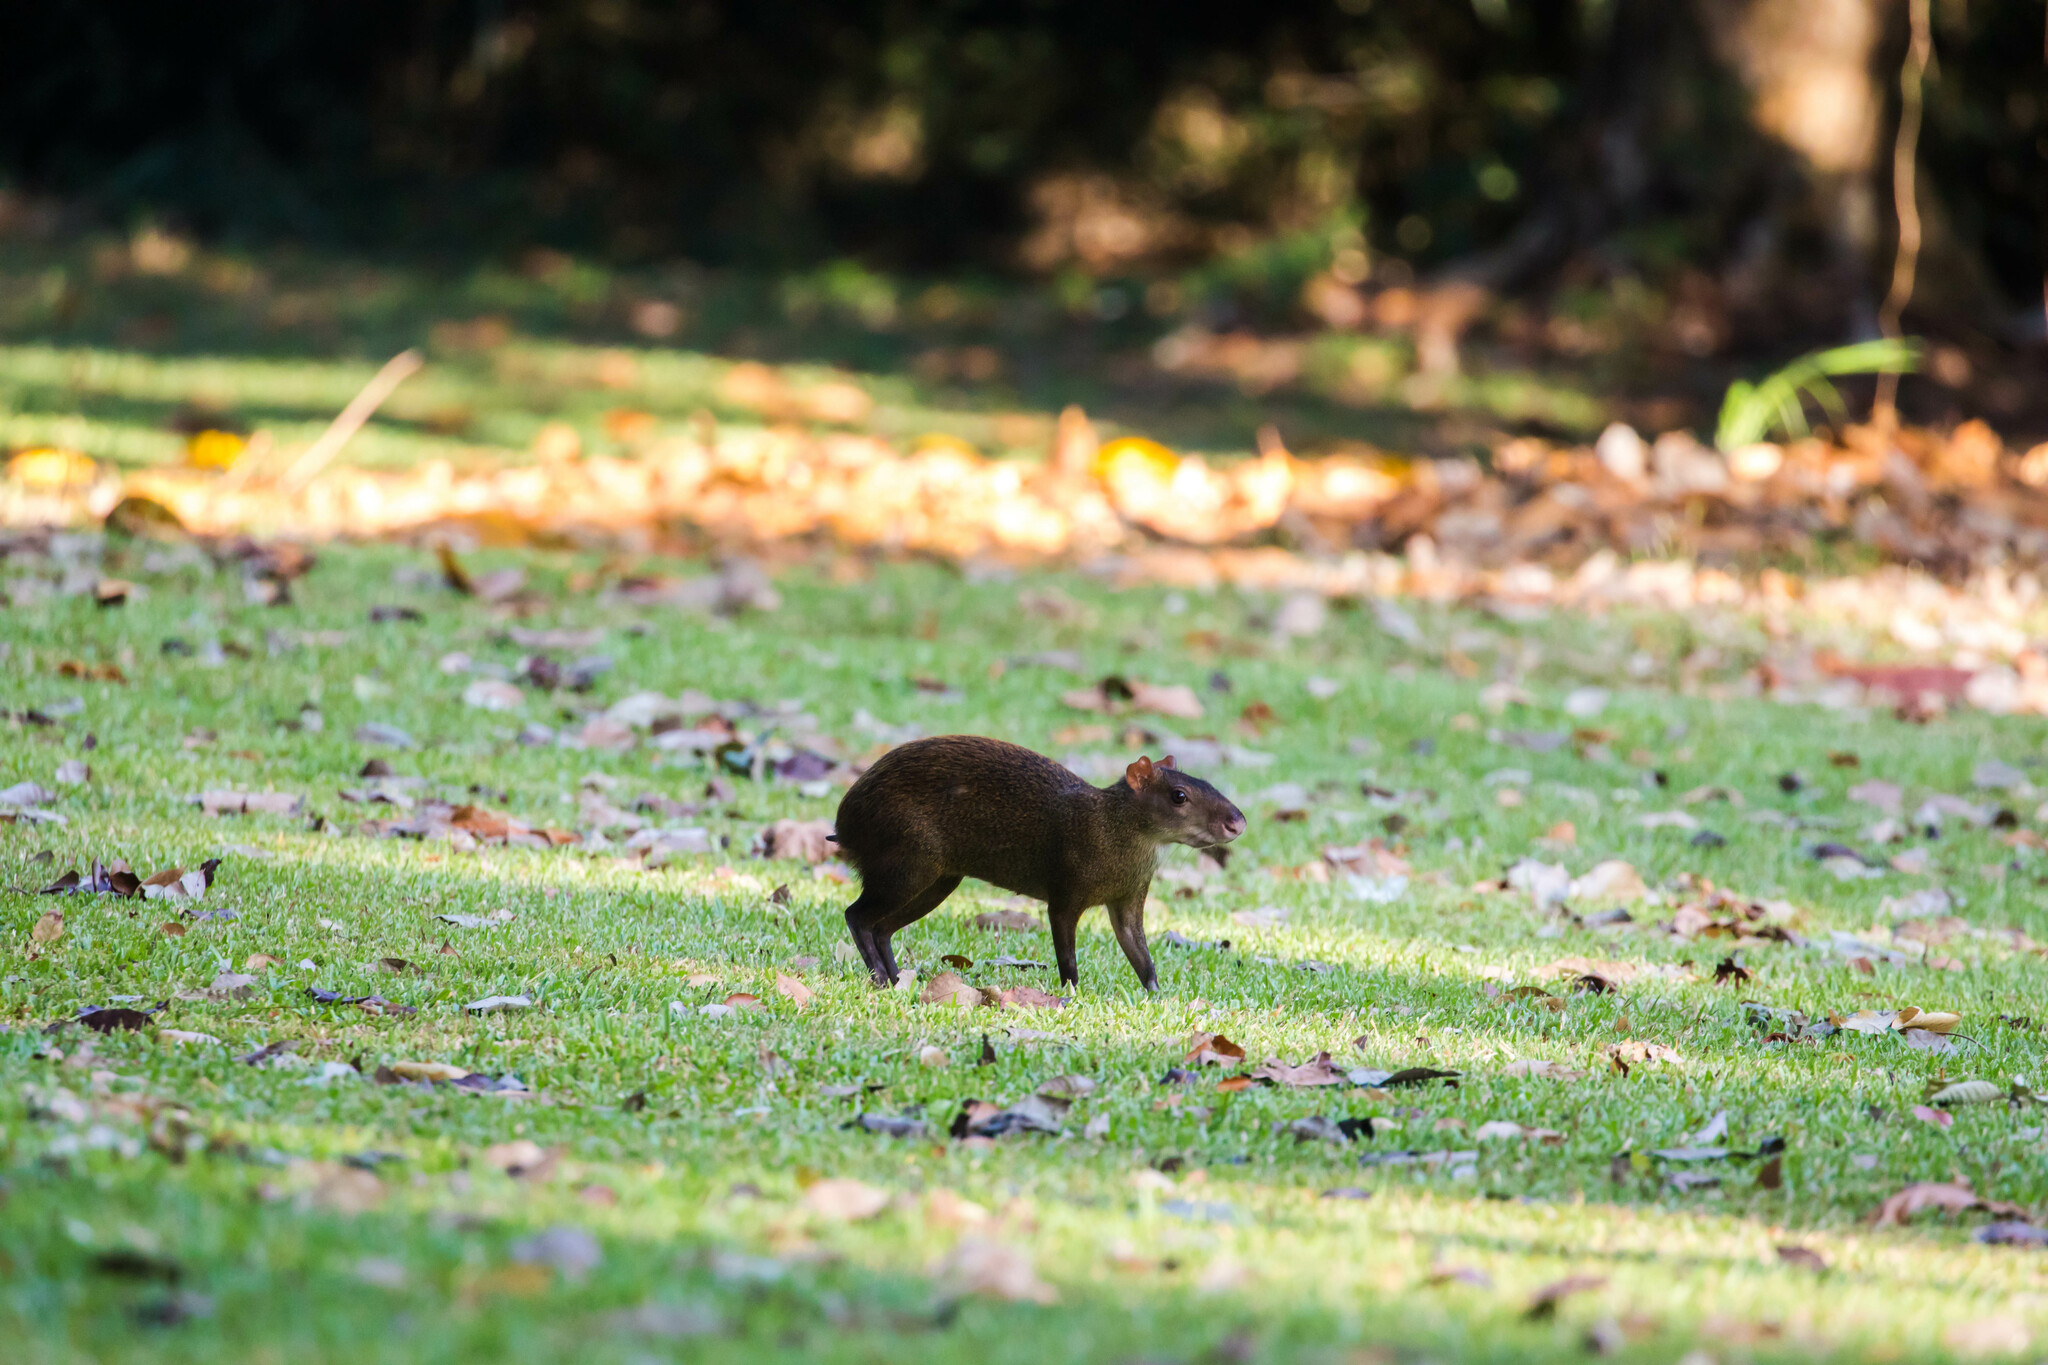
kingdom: Animalia
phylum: Chordata
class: Mammalia
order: Rodentia
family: Dasyproctidae
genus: Dasyprocta
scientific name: Dasyprocta punctata
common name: Central american agouti
